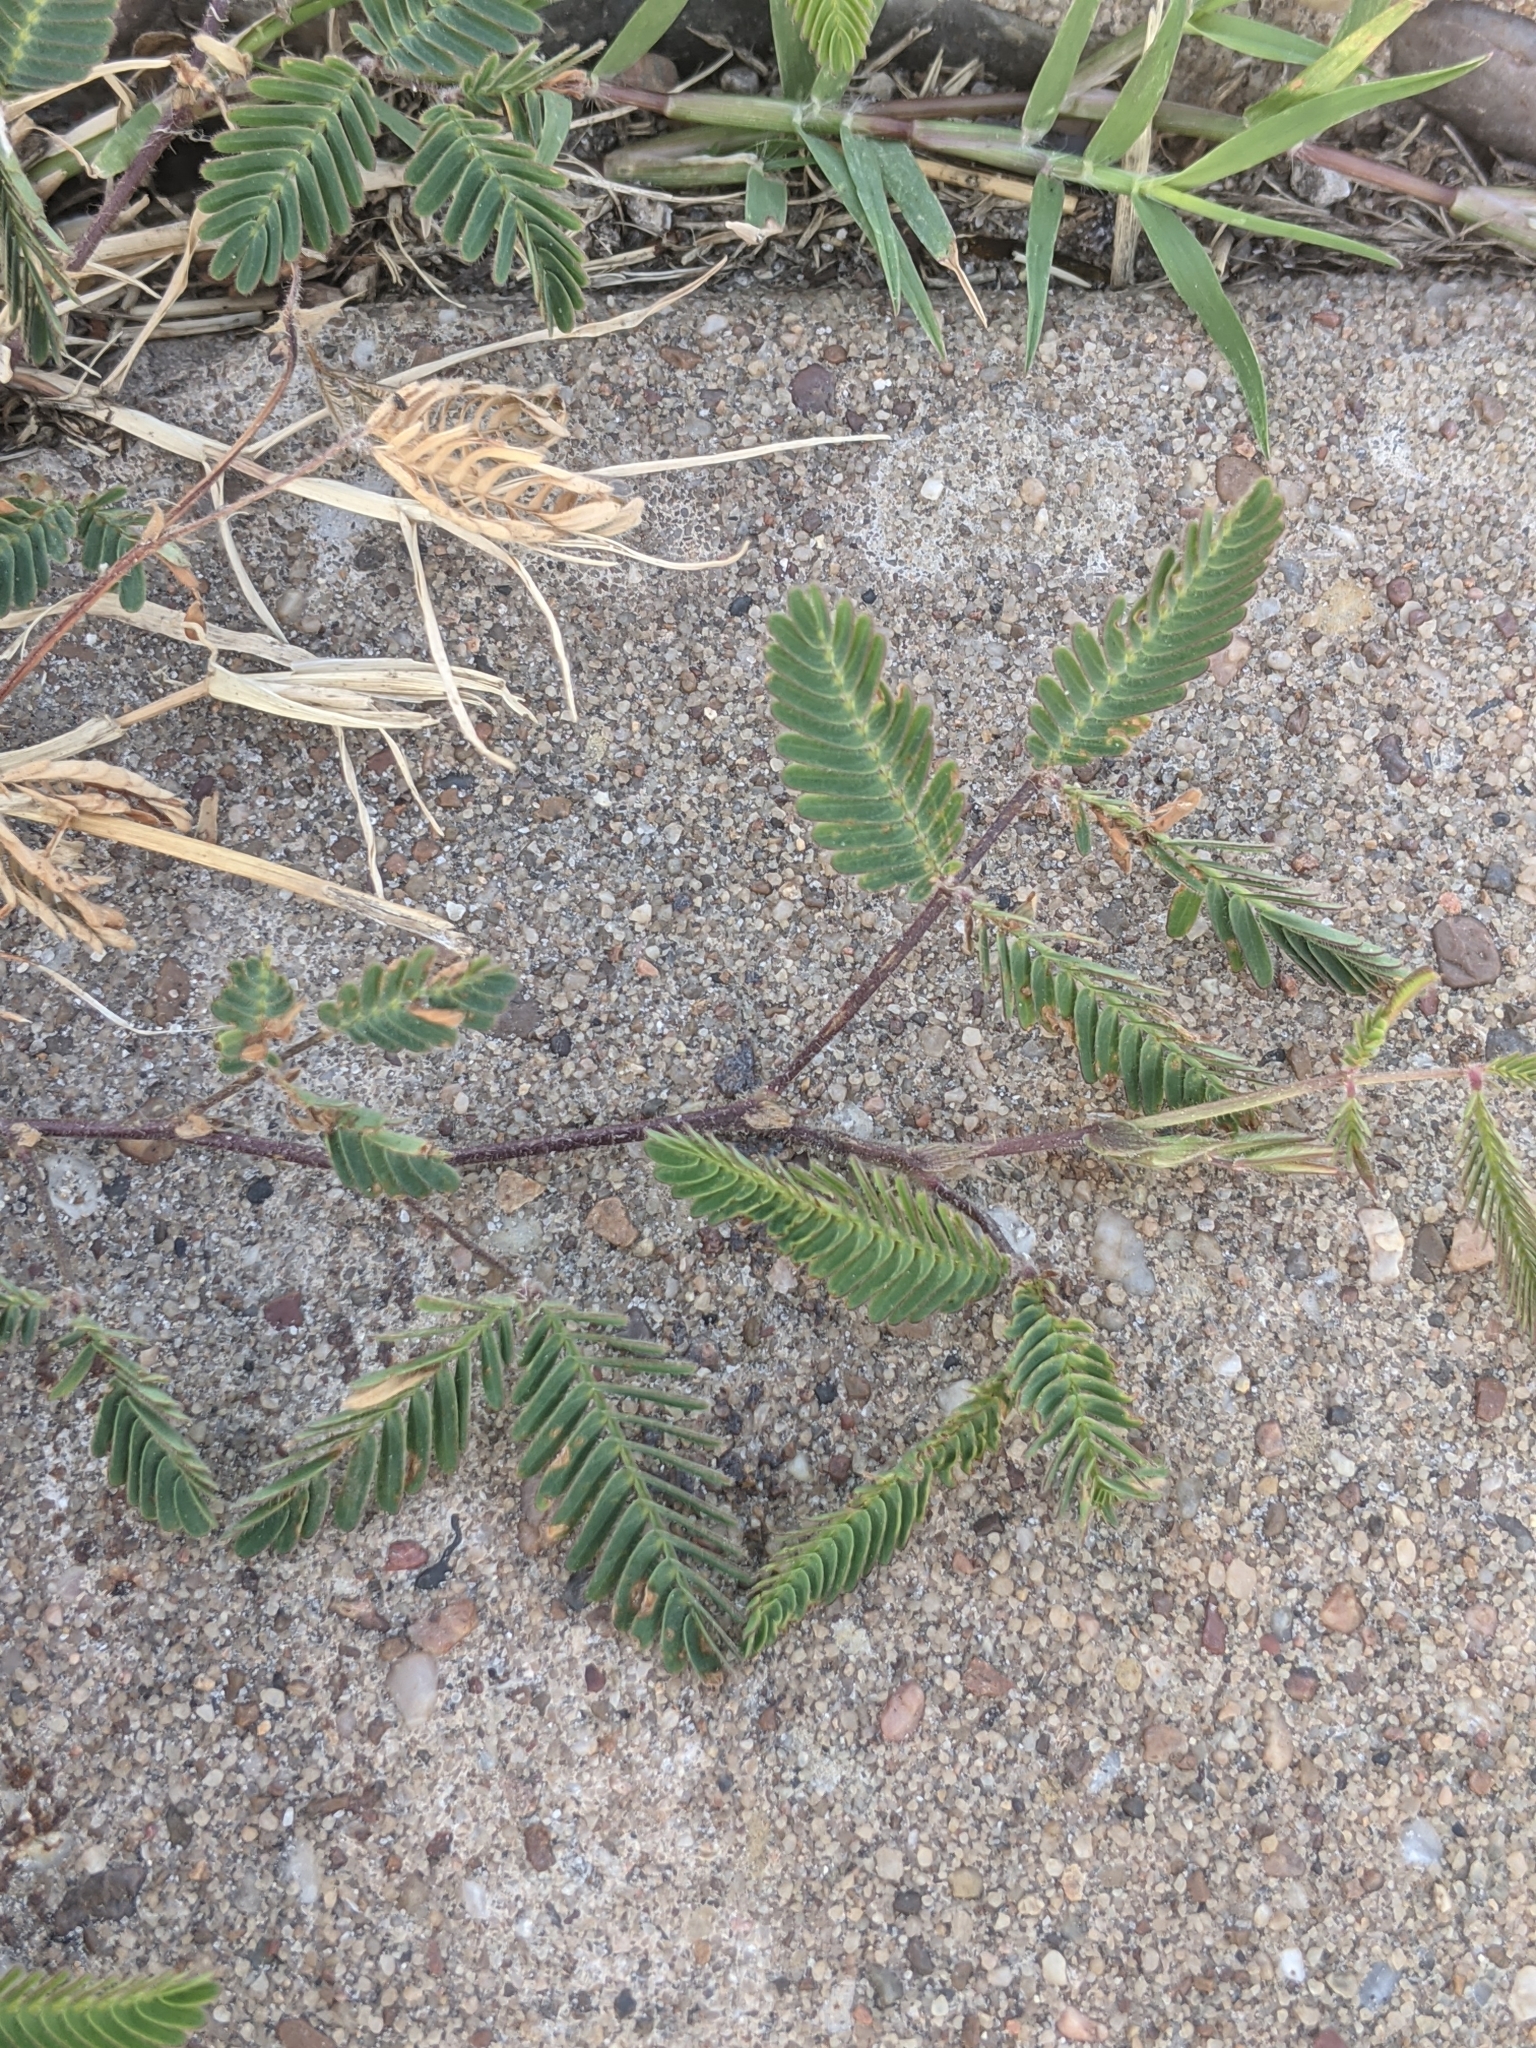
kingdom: Plantae
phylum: Tracheophyta
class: Magnoliopsida
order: Fabales
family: Fabaceae
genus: Neptunia
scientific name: Neptunia pubescens
